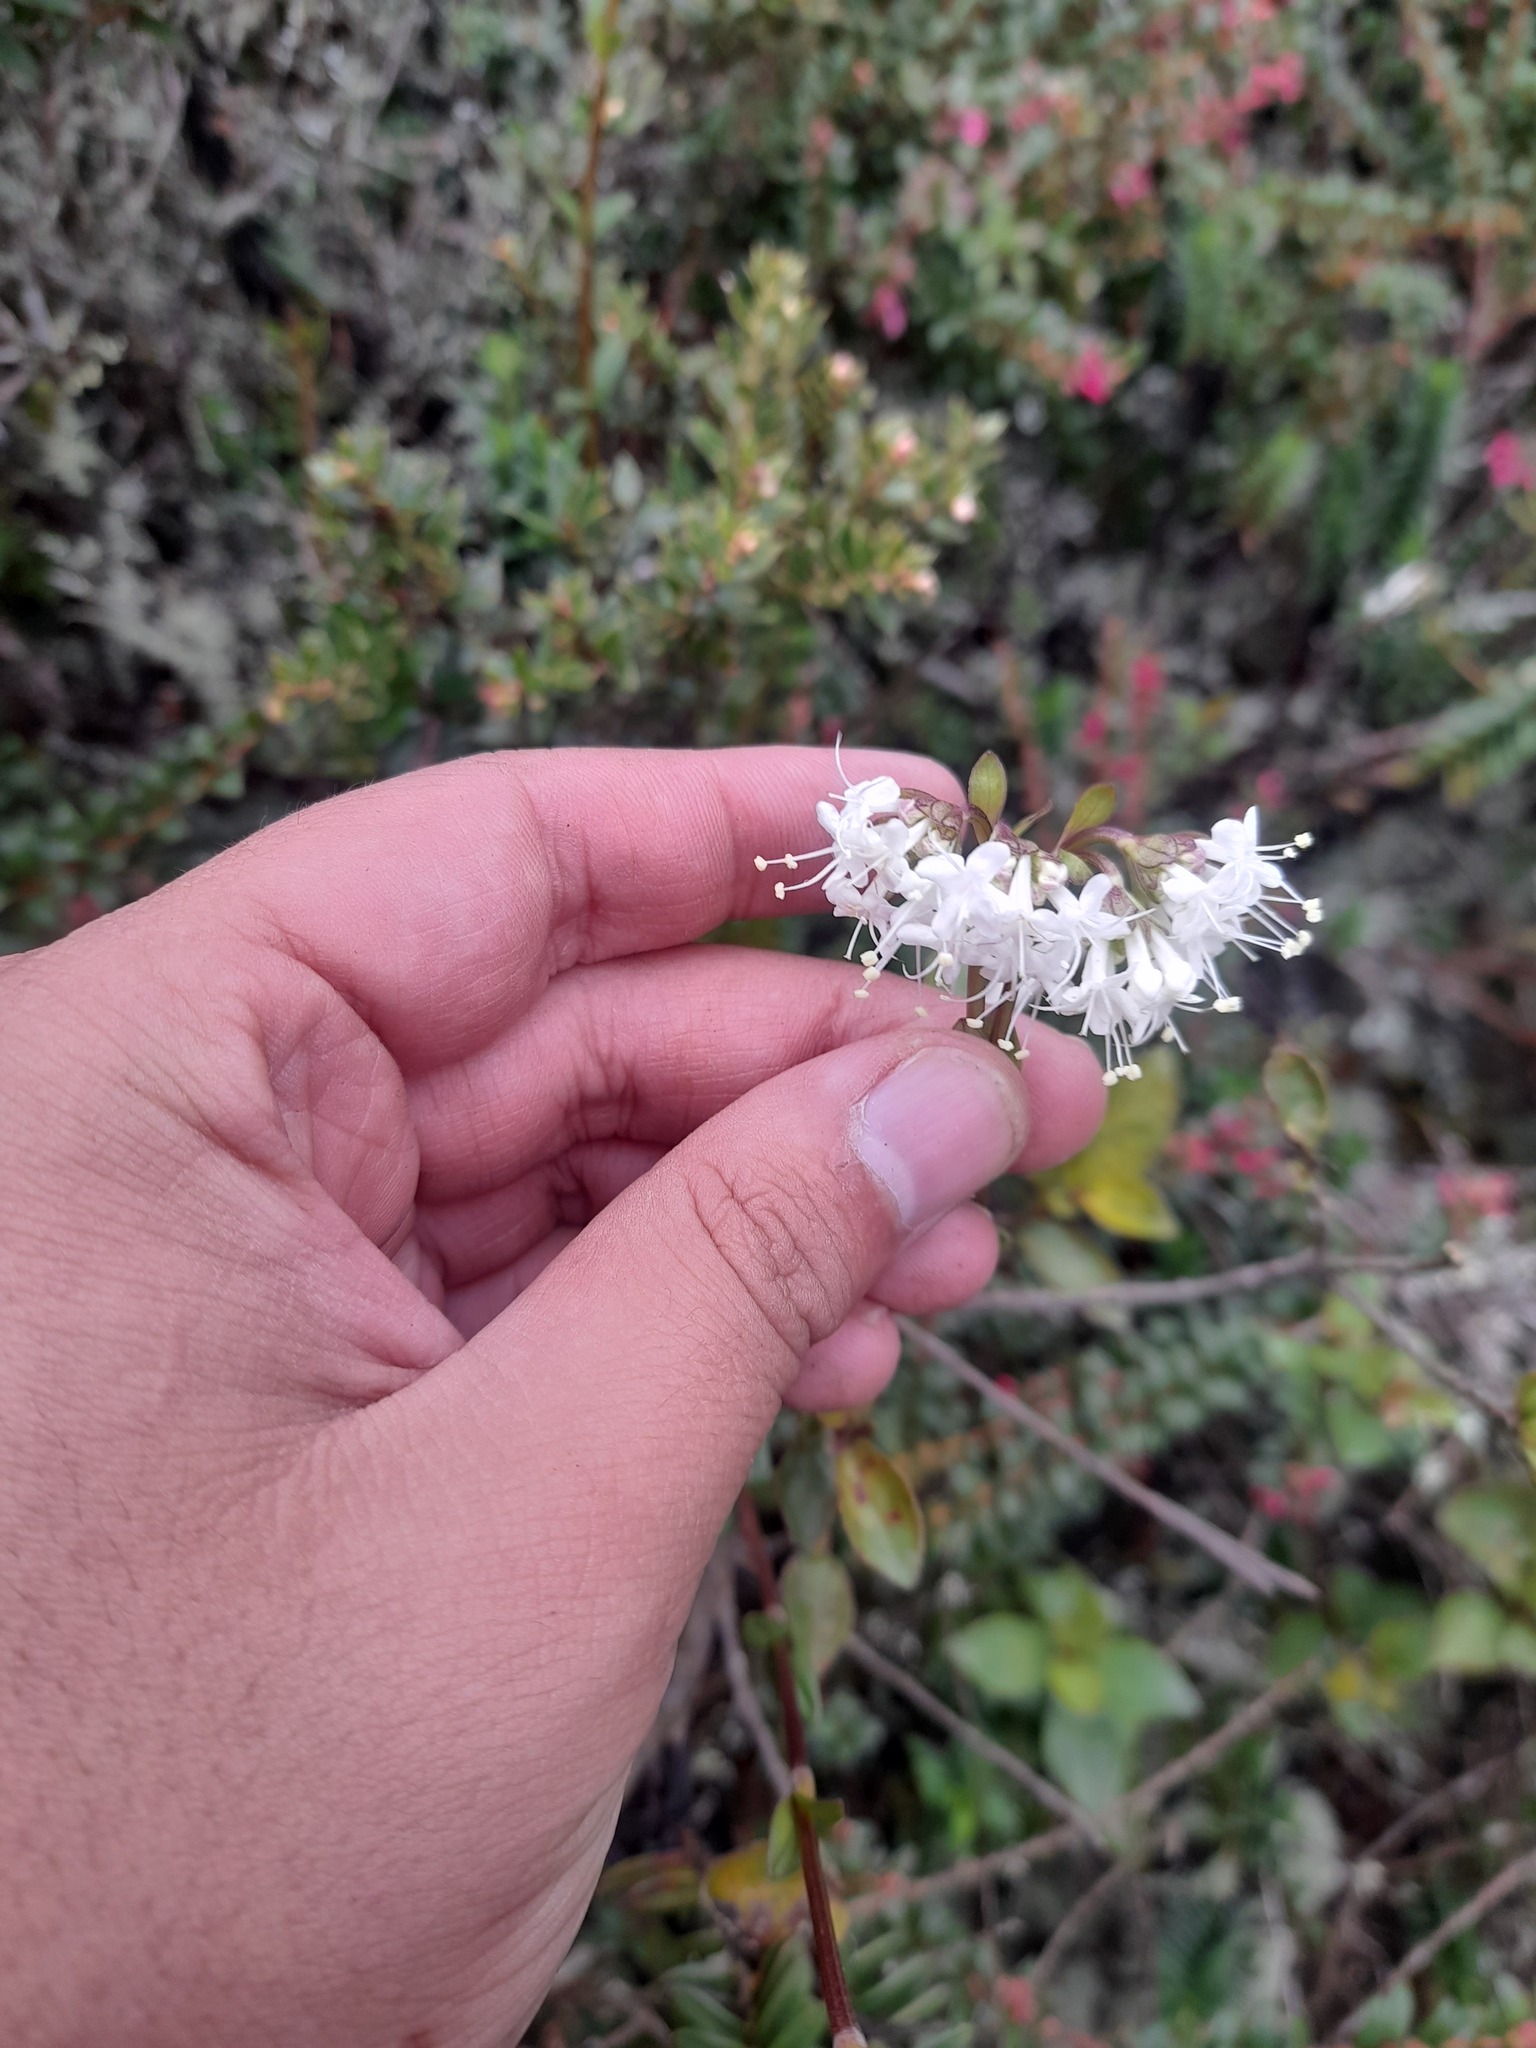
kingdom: Plantae
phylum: Tracheophyta
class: Magnoliopsida
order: Dipsacales
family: Caprifoliaceae
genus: Valeriana
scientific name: Valeriana triphylla
